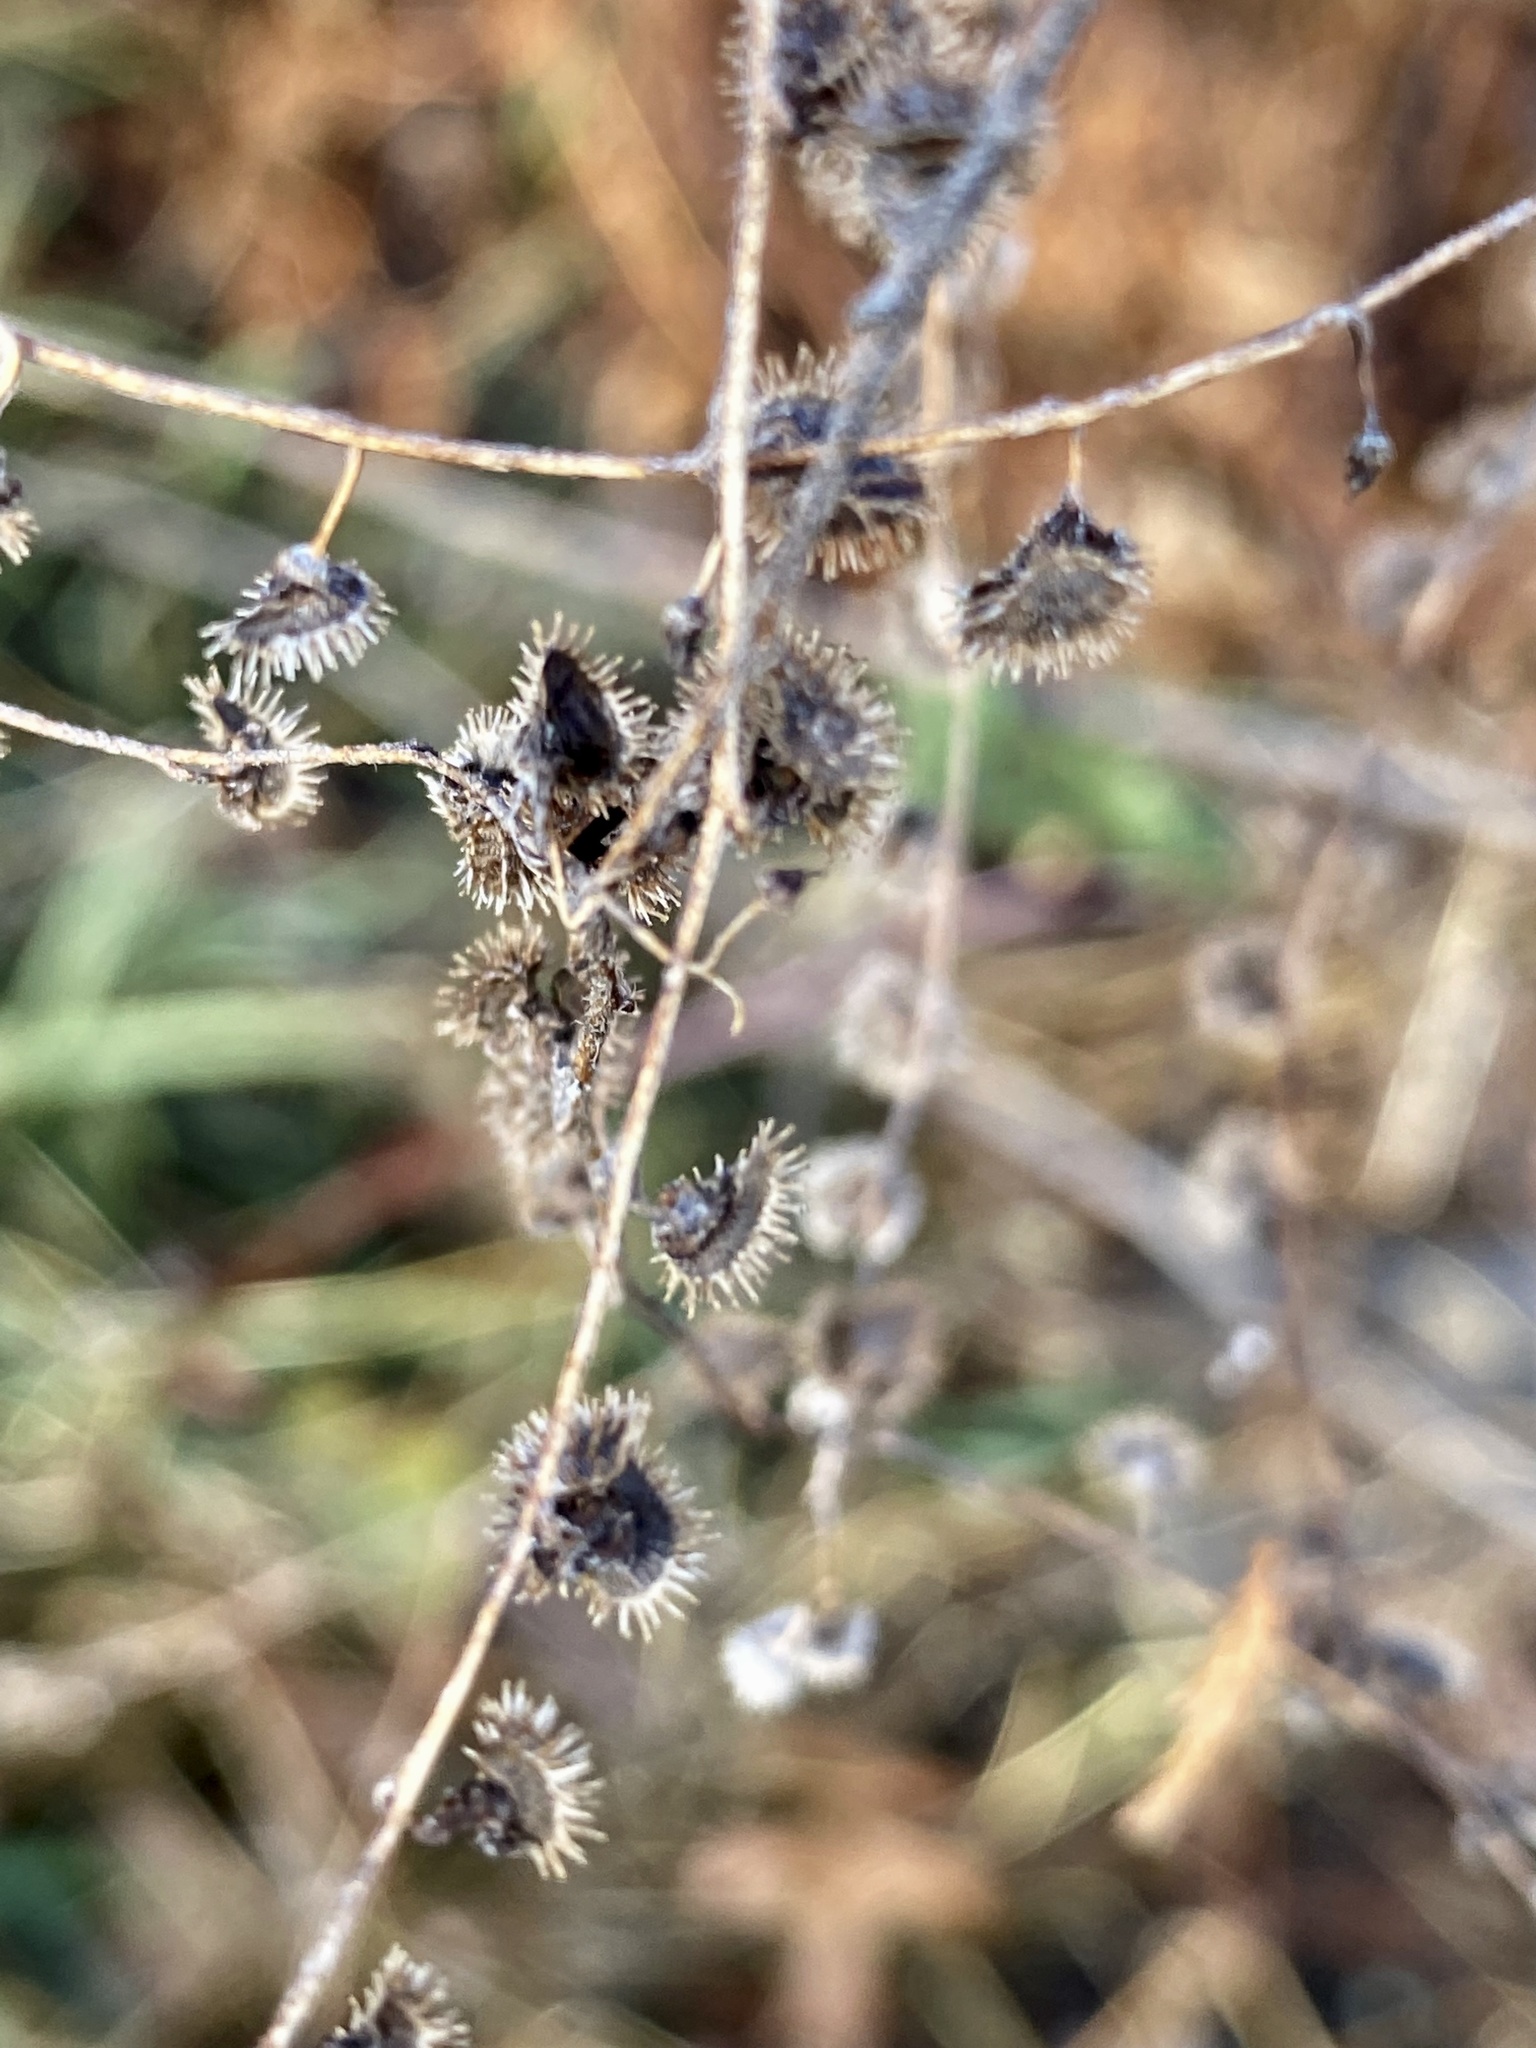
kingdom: Plantae
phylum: Tracheophyta
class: Magnoliopsida
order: Boraginales
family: Boraginaceae
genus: Hackelia
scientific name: Hackelia virginiana
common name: Beggar's-lice
